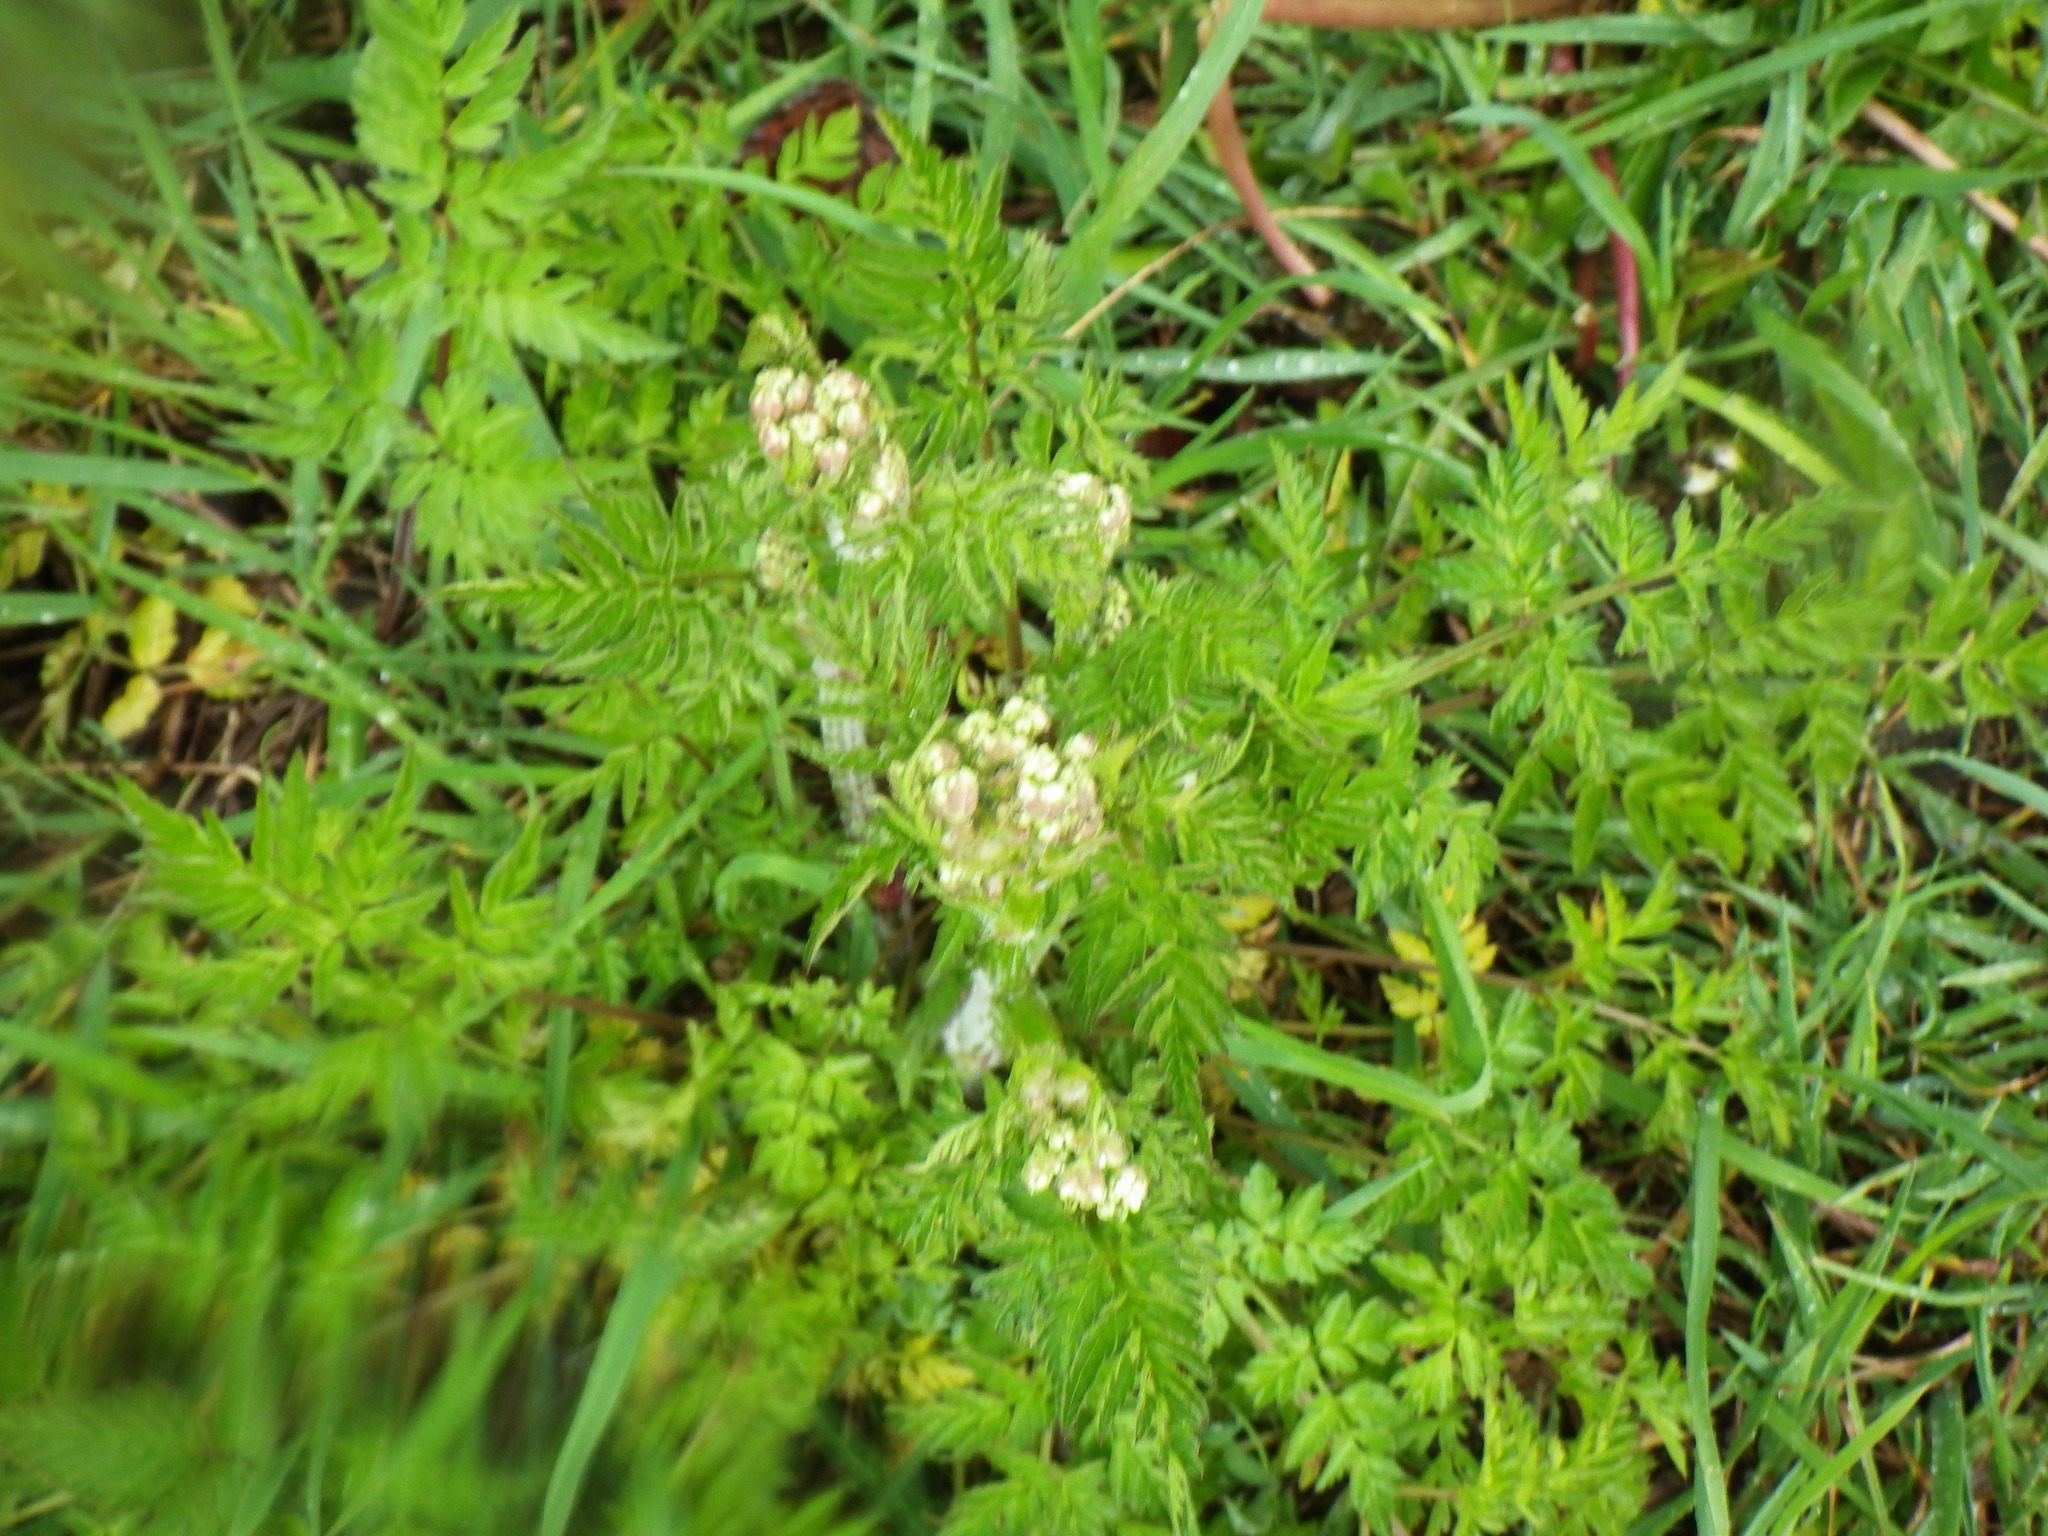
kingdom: Plantae
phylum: Tracheophyta
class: Magnoliopsida
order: Apiales
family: Apiaceae
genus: Anthriscus
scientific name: Anthriscus sylvestris
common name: Cow parsley
